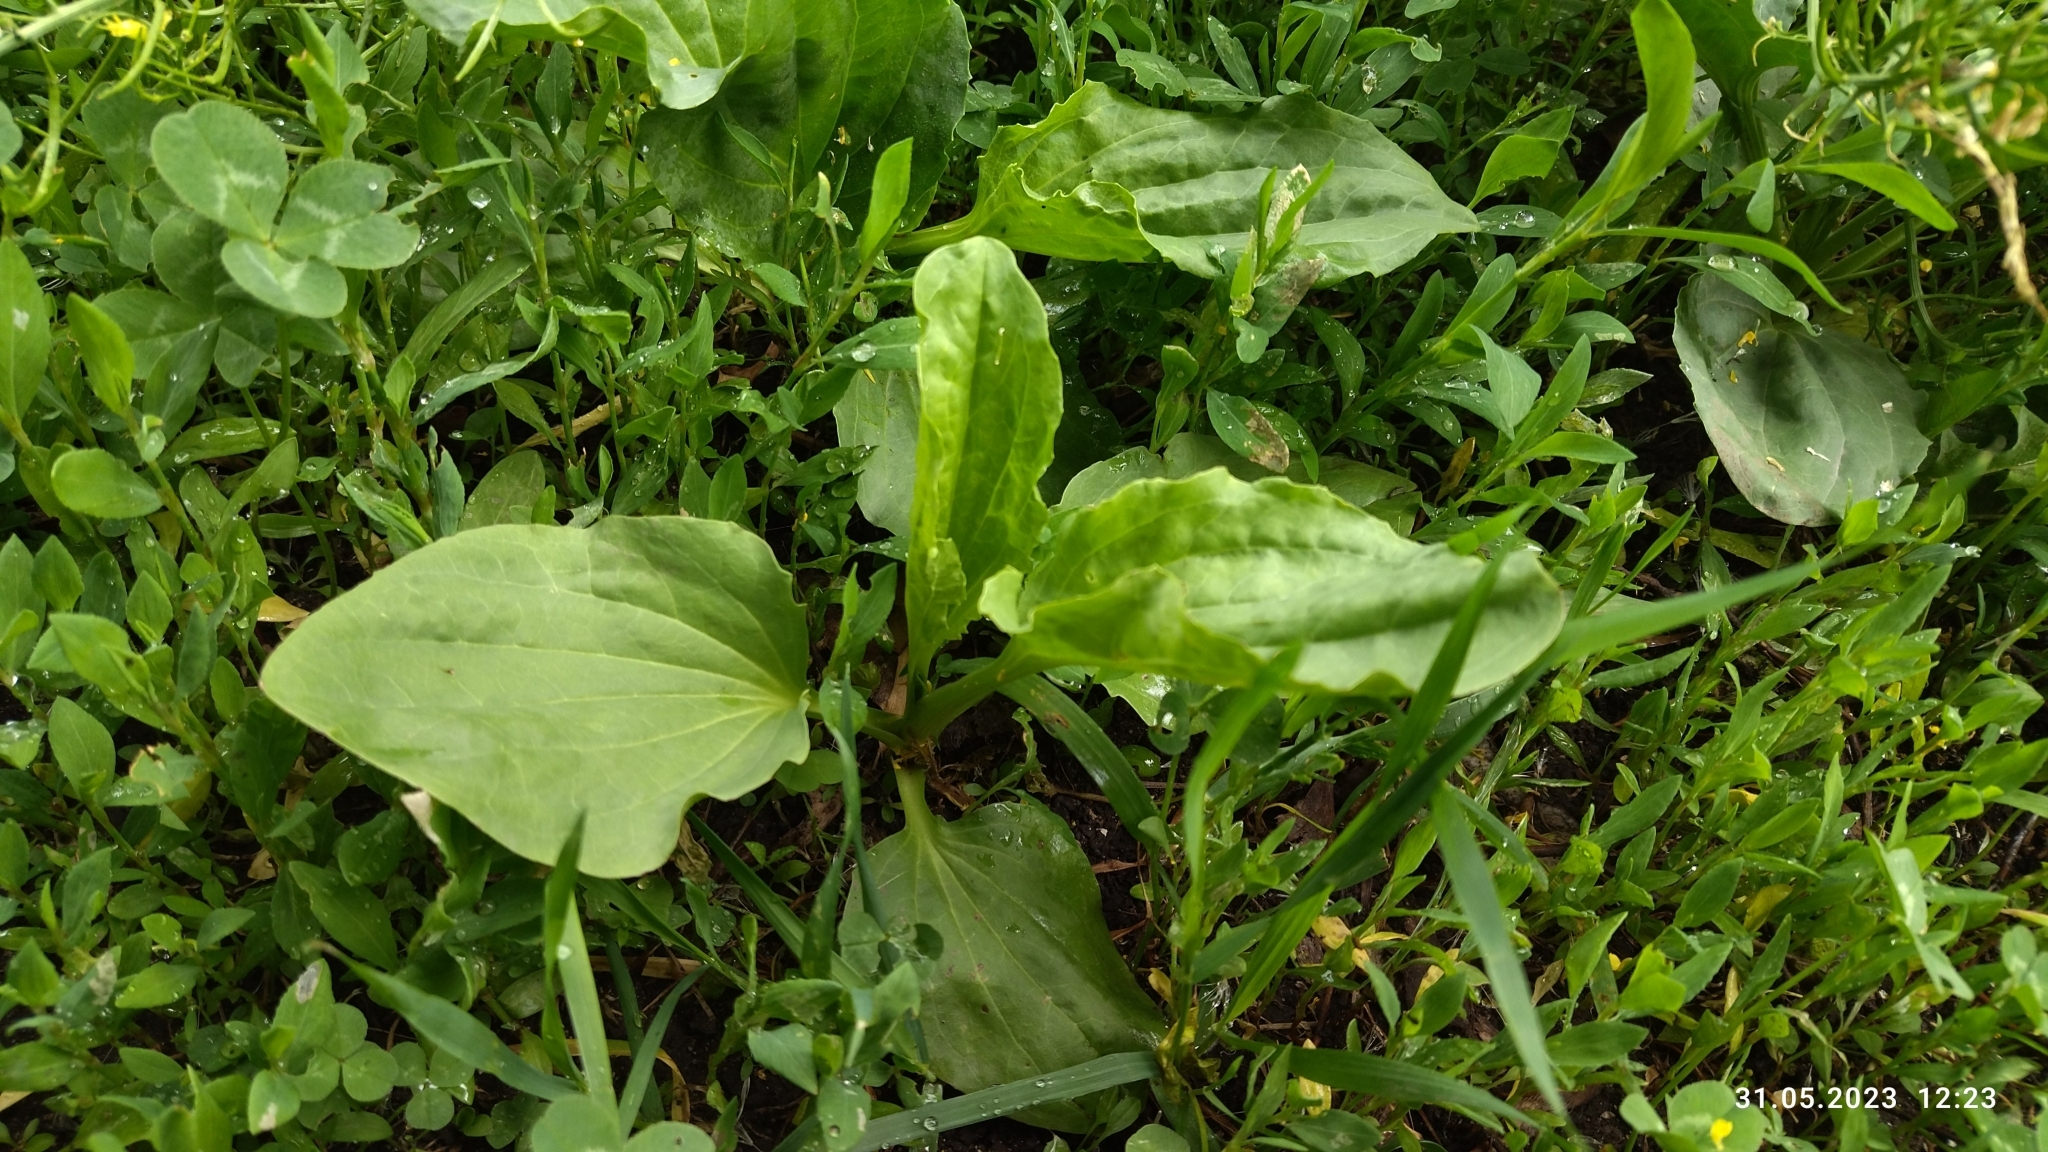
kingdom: Plantae
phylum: Tracheophyta
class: Magnoliopsida
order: Lamiales
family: Plantaginaceae
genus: Plantago
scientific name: Plantago major
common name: Common plantain
